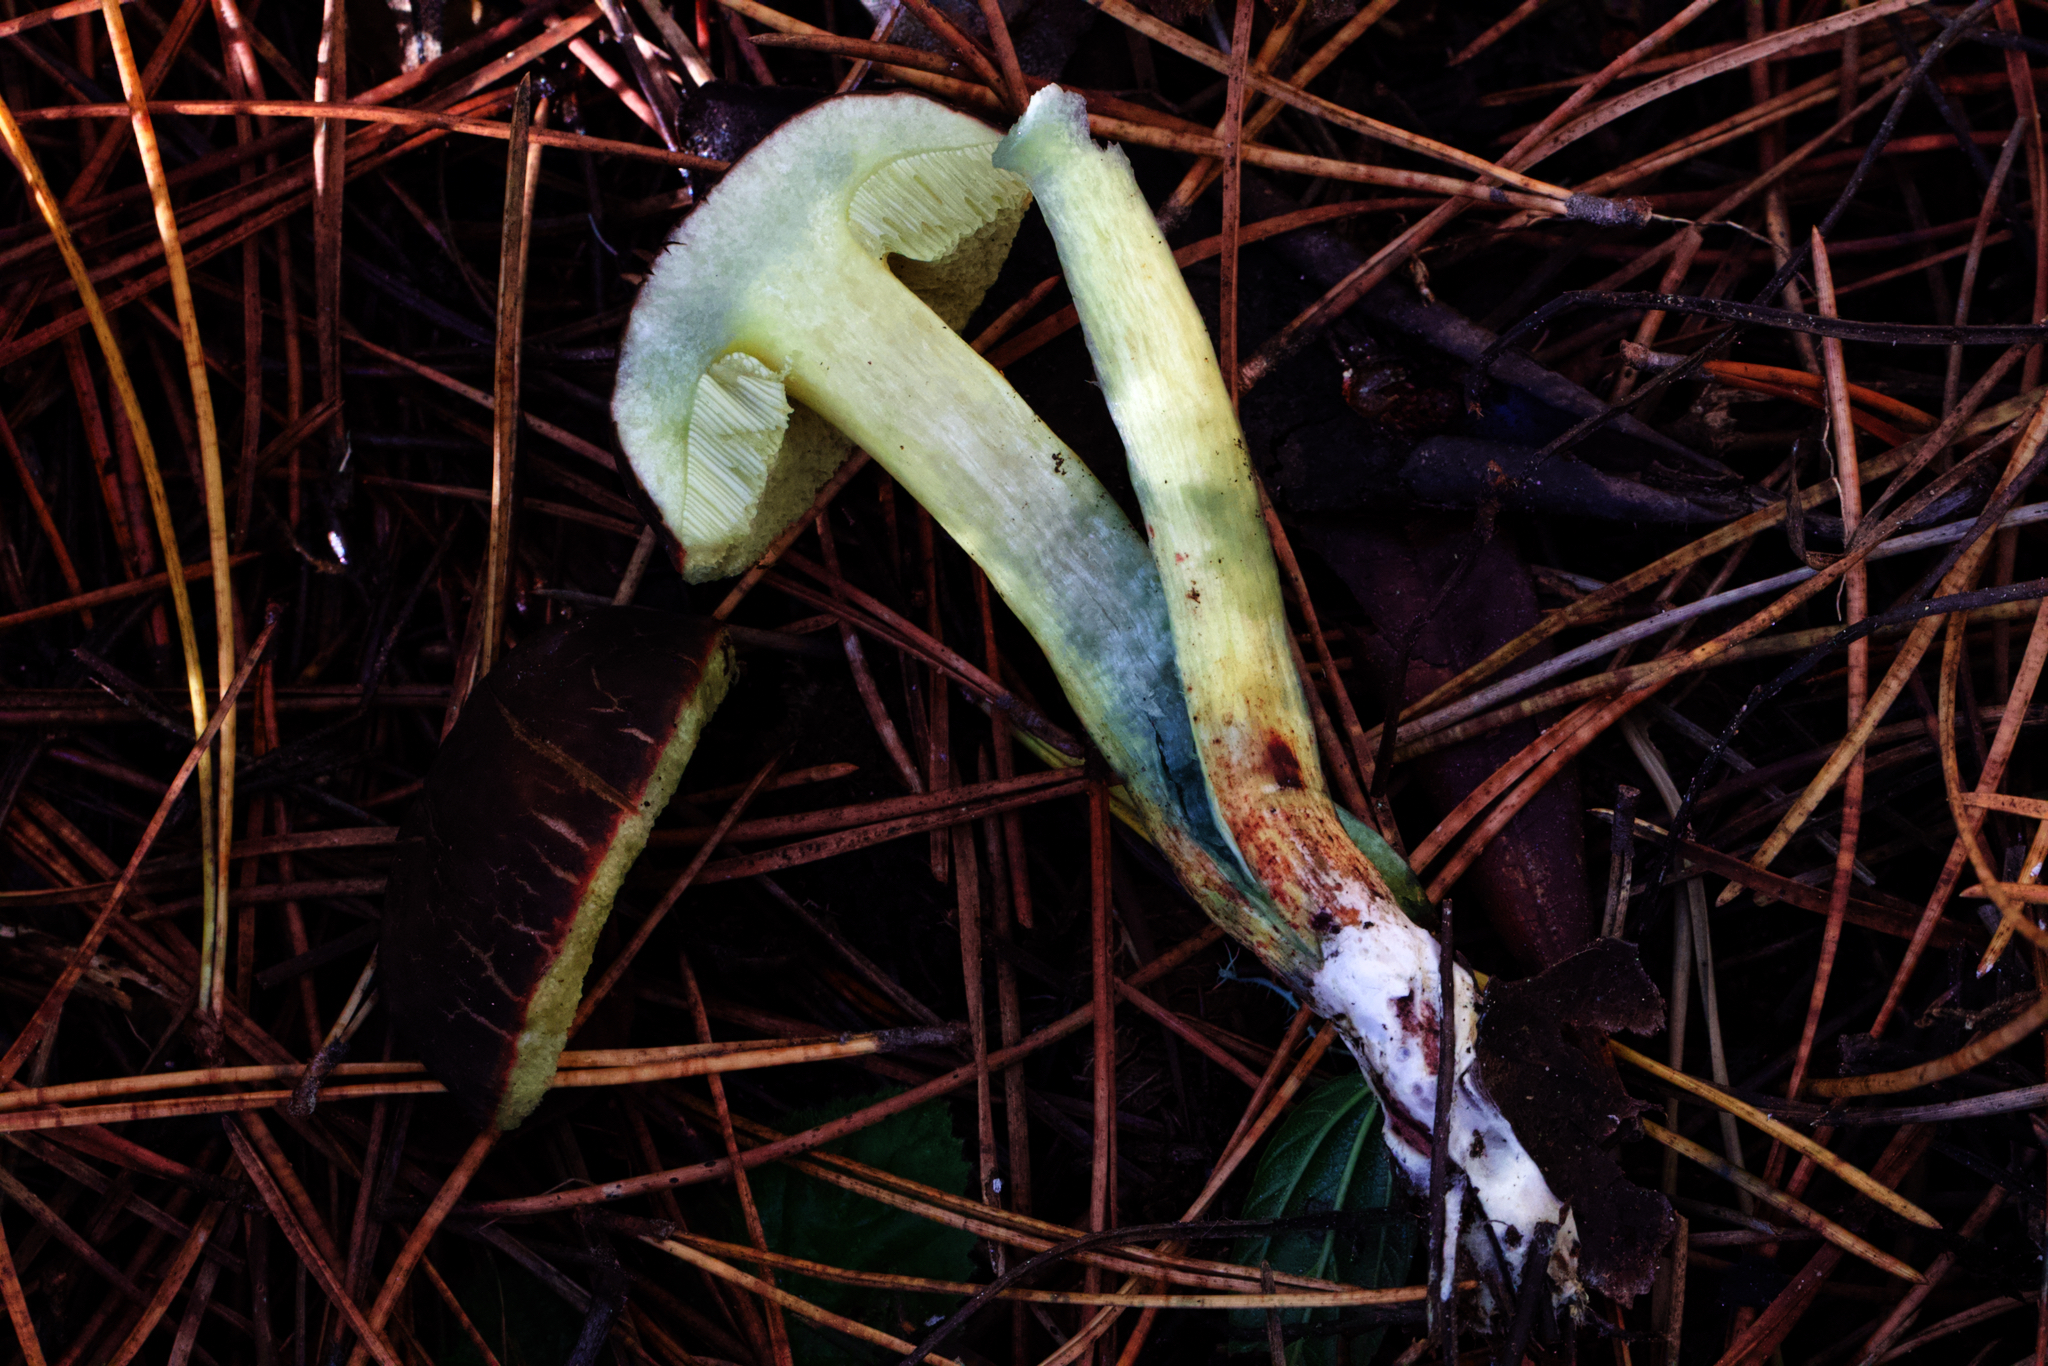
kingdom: Fungi
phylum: Basidiomycota
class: Agaricomycetes
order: Boletales
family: Boletaceae
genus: Xerocomellus
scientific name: Xerocomellus diffractus
